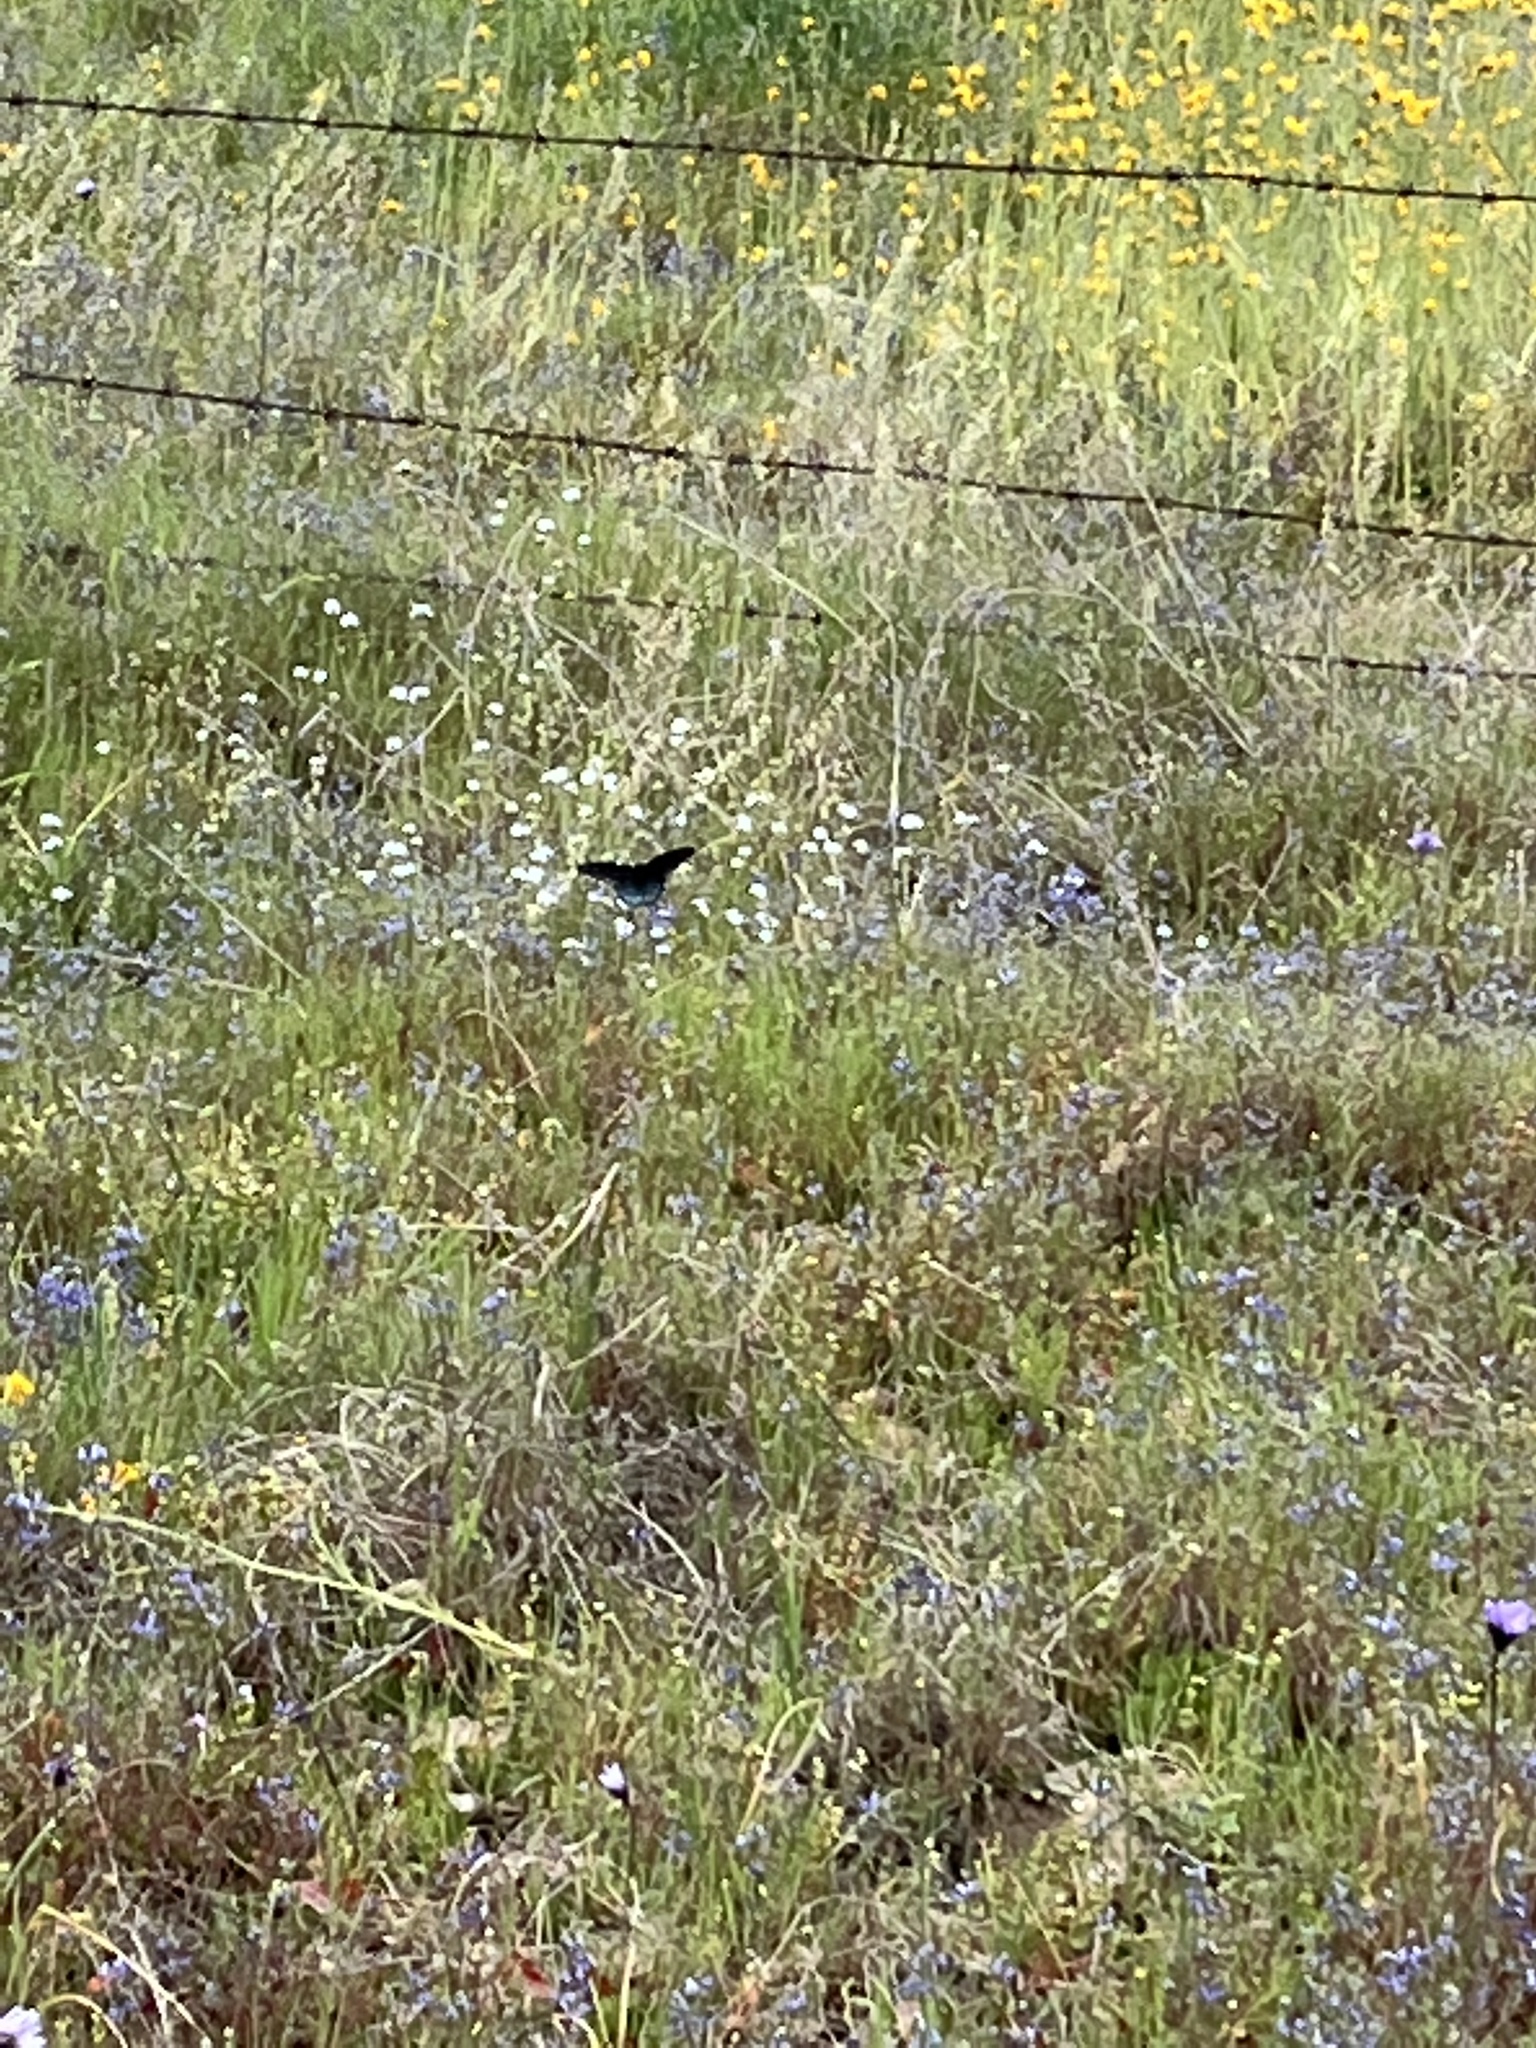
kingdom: Animalia
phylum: Arthropoda
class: Insecta
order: Lepidoptera
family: Papilionidae
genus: Battus
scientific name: Battus philenor
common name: Pipevine swallowtail
